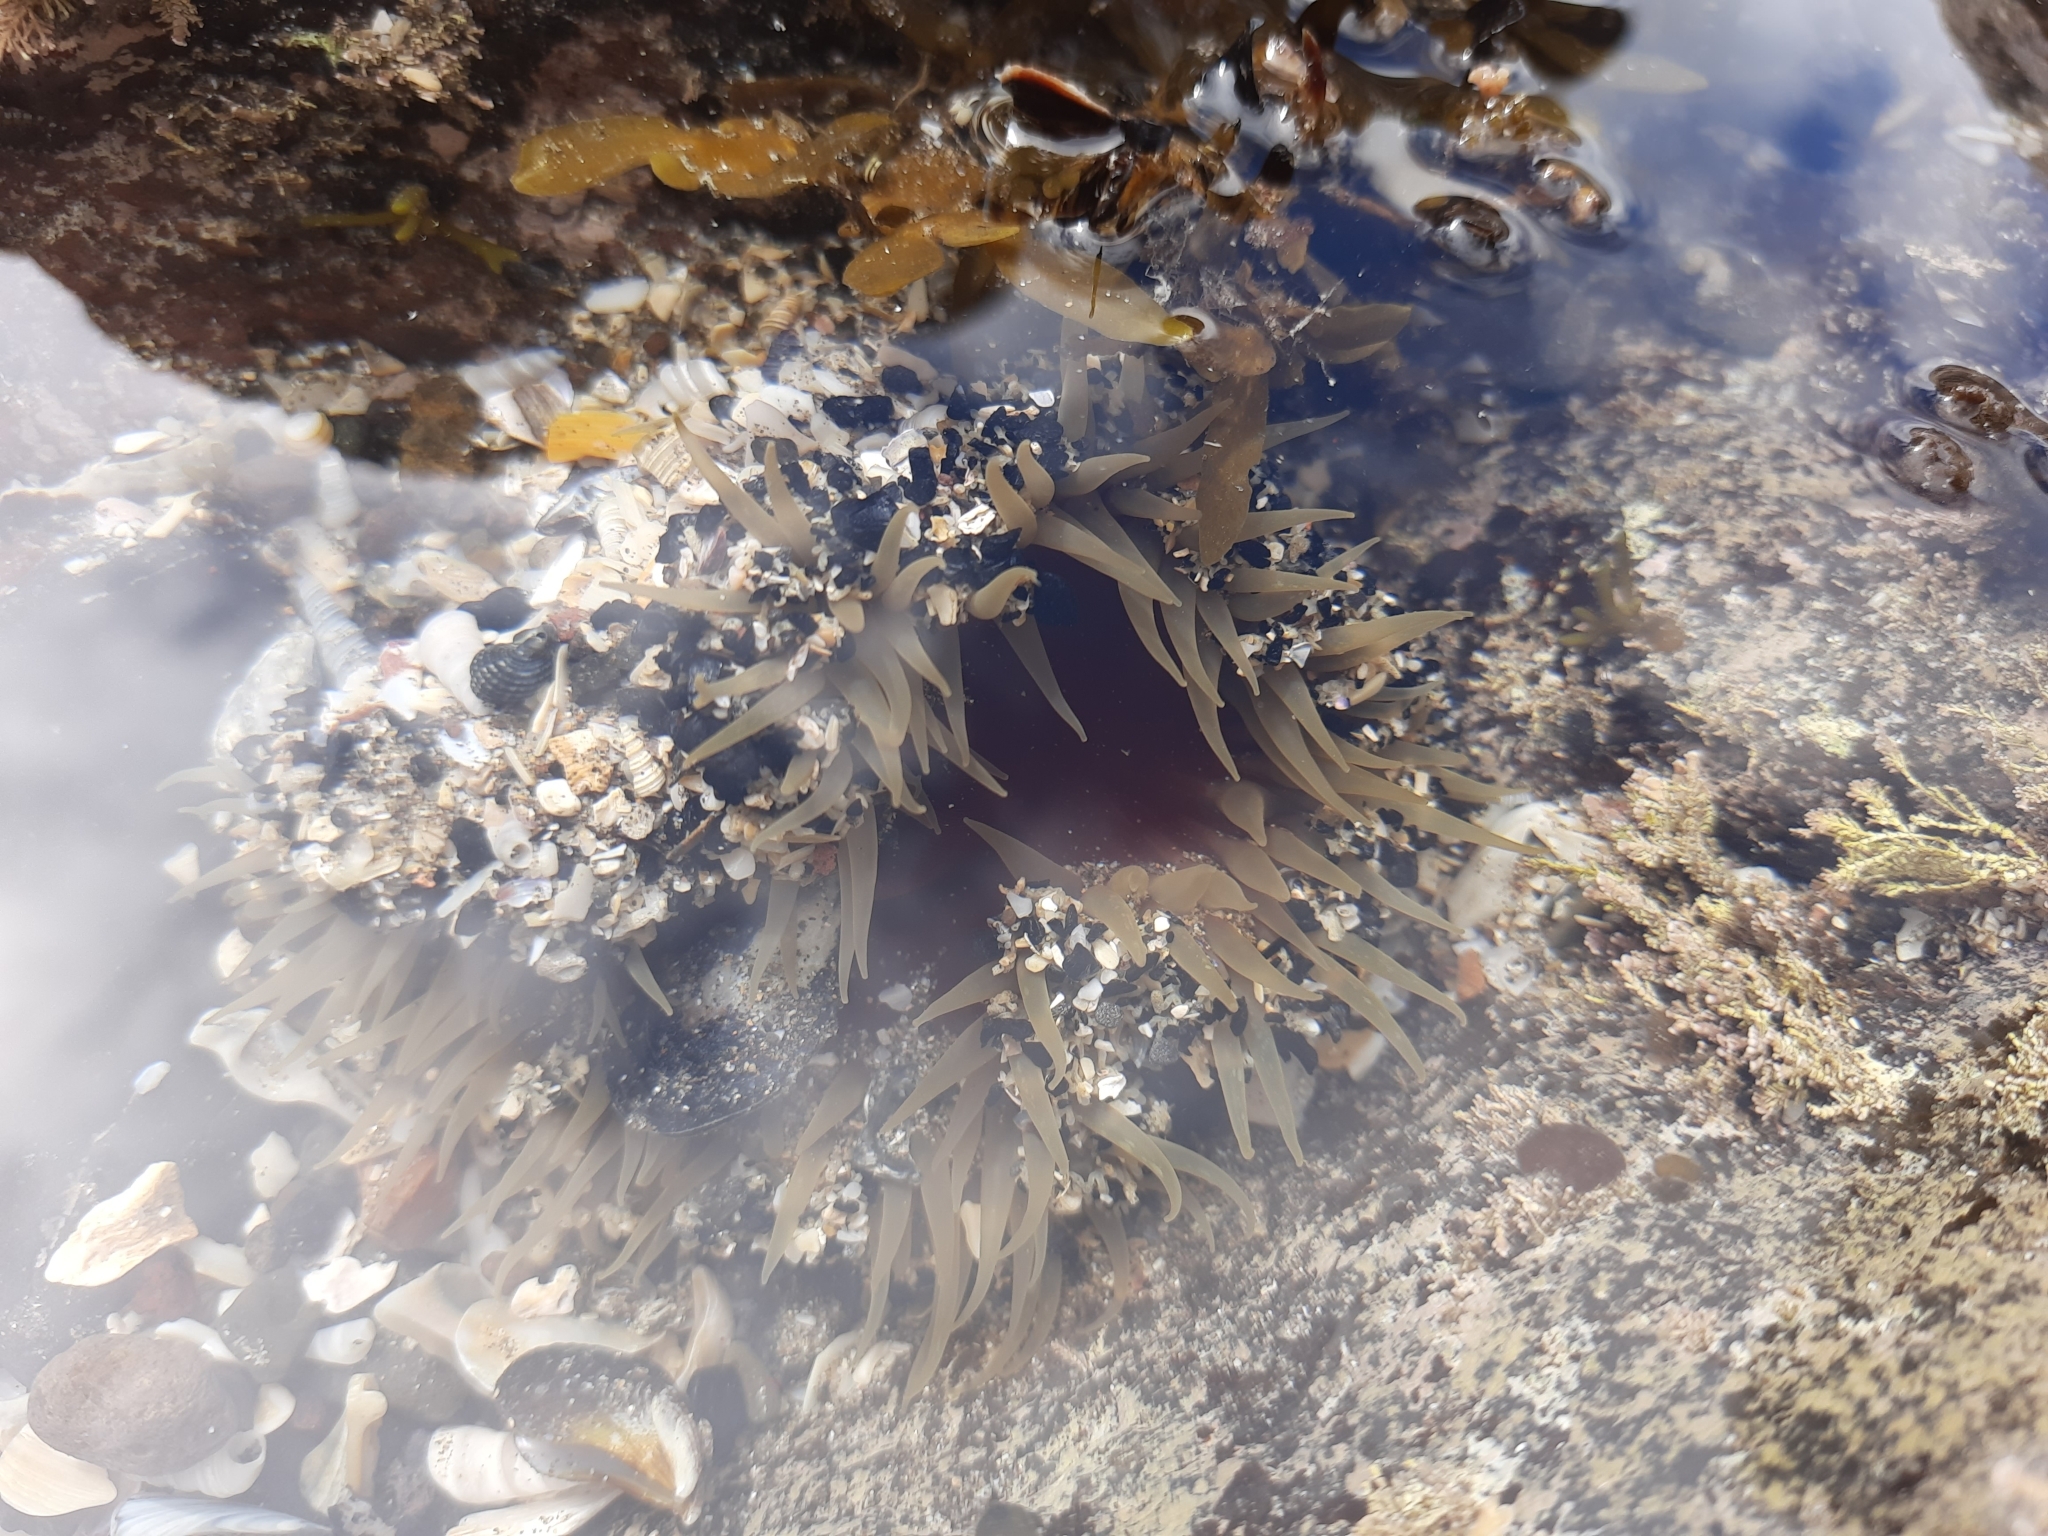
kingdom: Animalia
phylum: Cnidaria
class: Anthozoa
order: Actiniaria
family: Actiniidae
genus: Oulactis
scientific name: Oulactis magna
